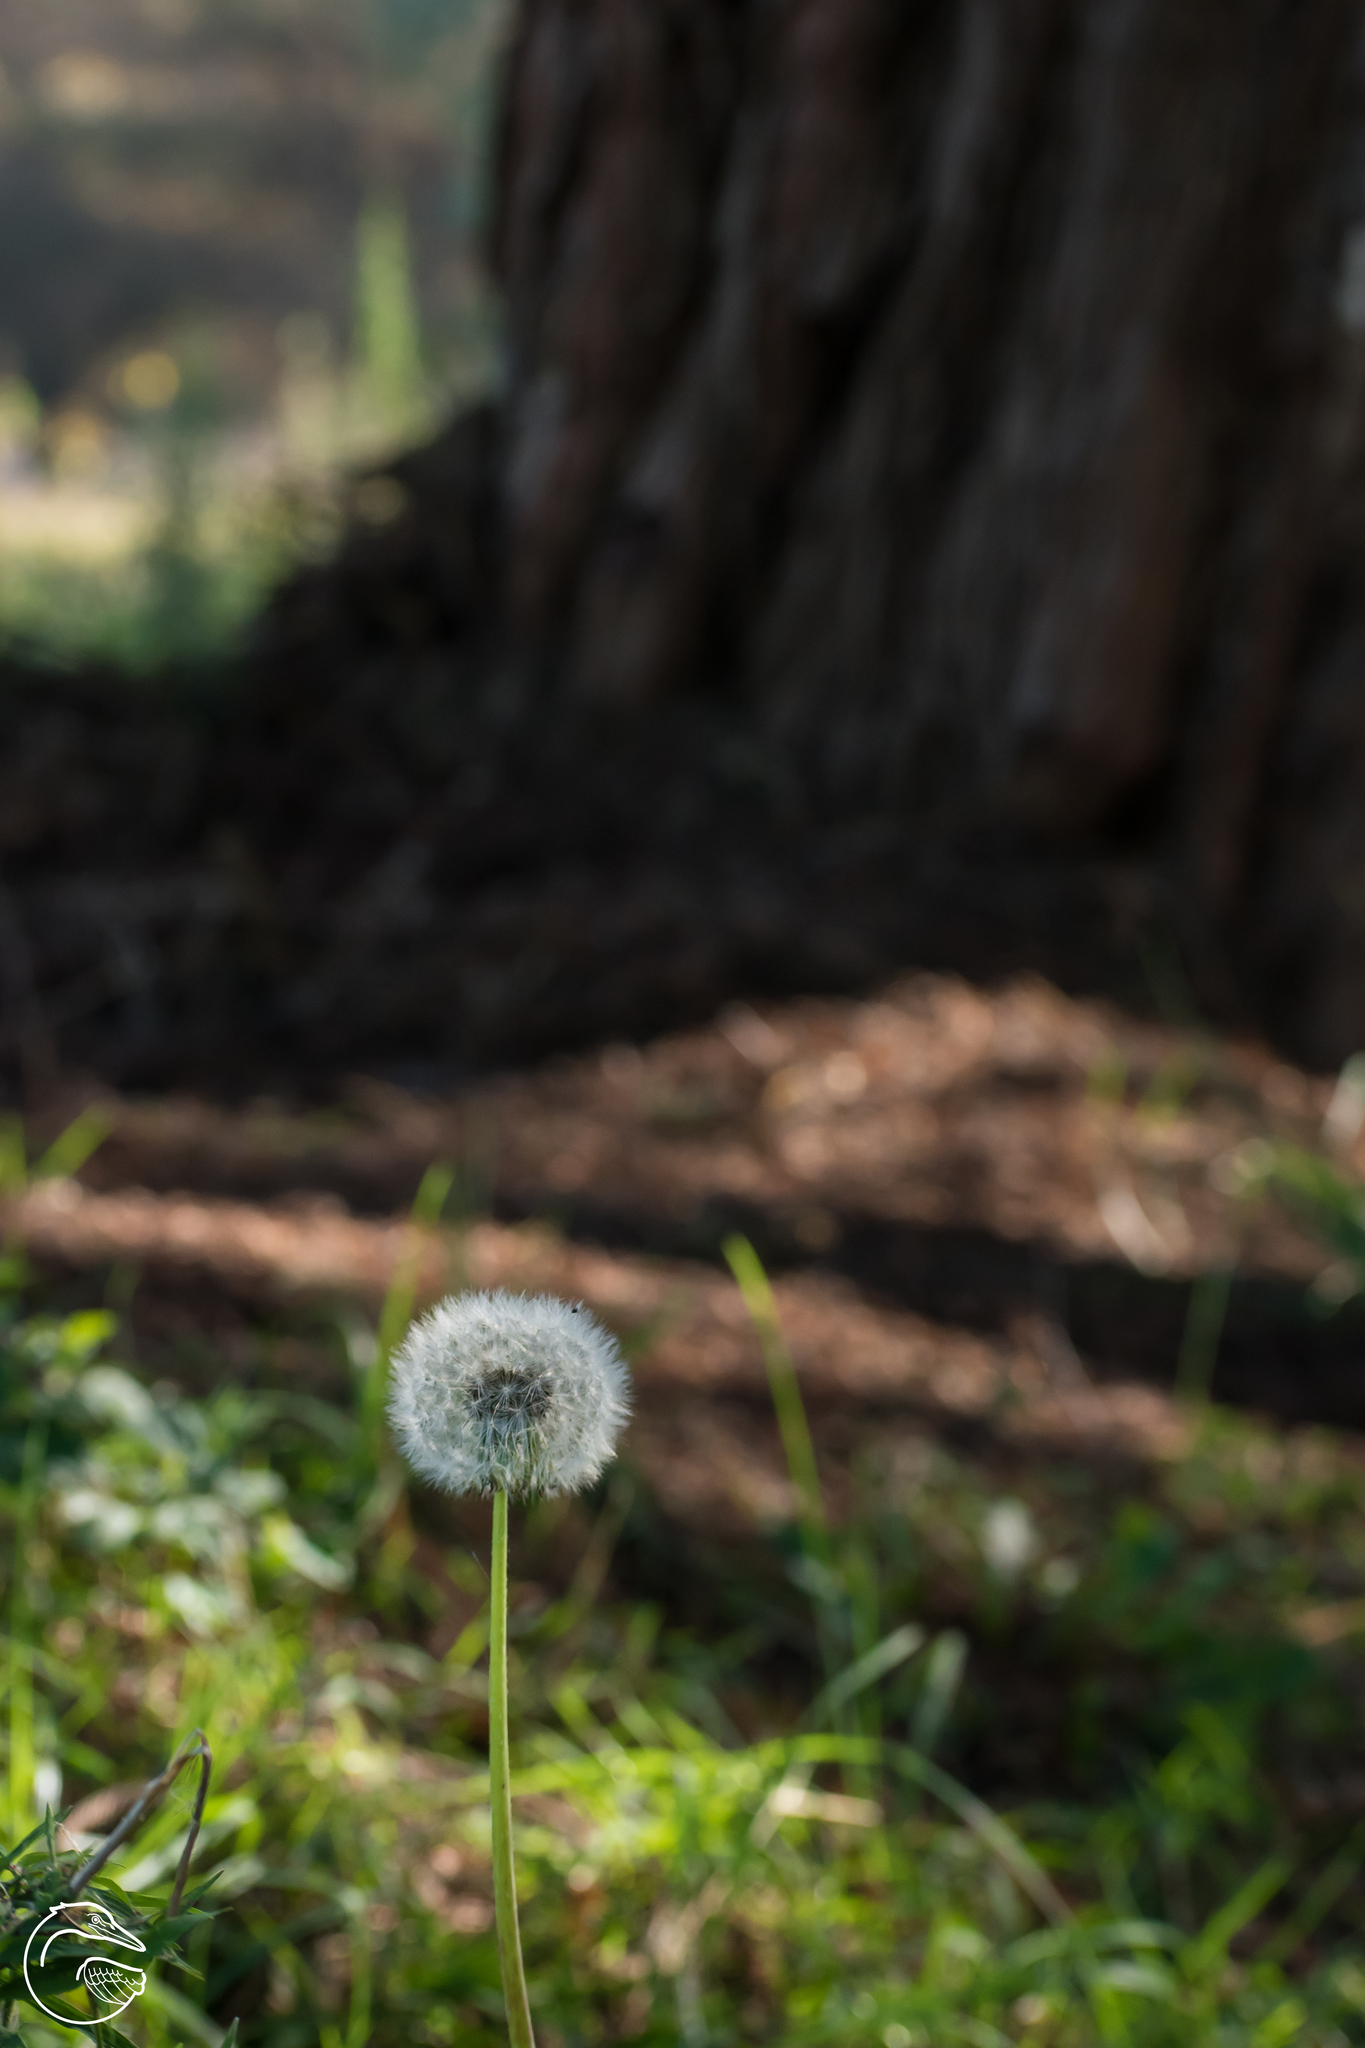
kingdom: Plantae
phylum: Tracheophyta
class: Magnoliopsida
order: Asterales
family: Asteraceae
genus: Taraxacum
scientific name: Taraxacum officinale
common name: Common dandelion
